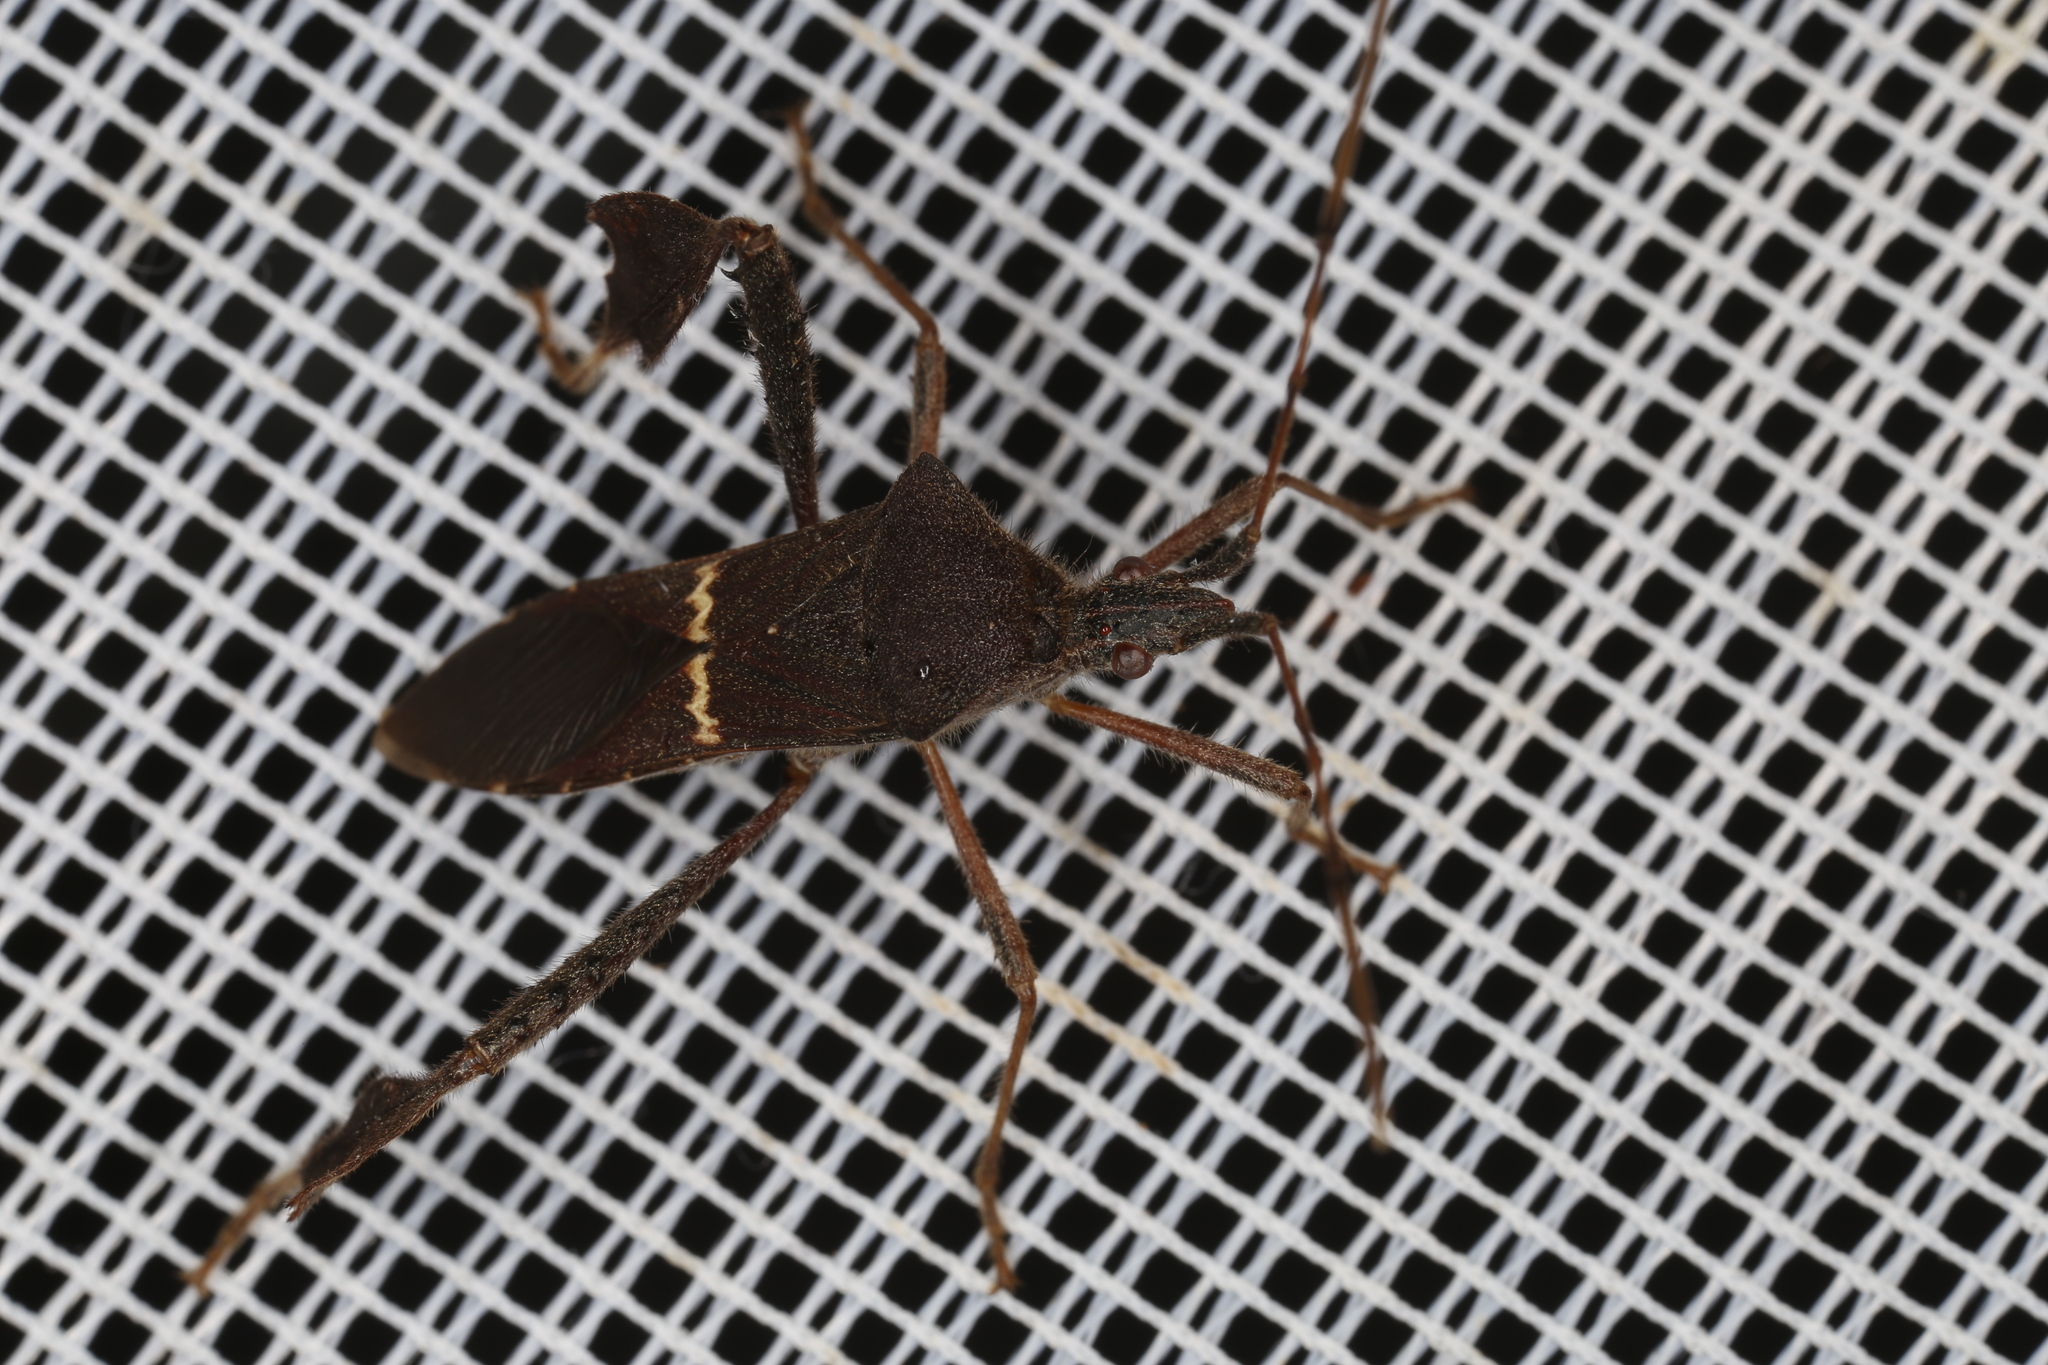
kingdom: Animalia
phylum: Arthropoda
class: Insecta
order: Hemiptera
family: Coreidae
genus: Leptoglossus
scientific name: Leptoglossus concolor
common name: Leaf-footed bug
